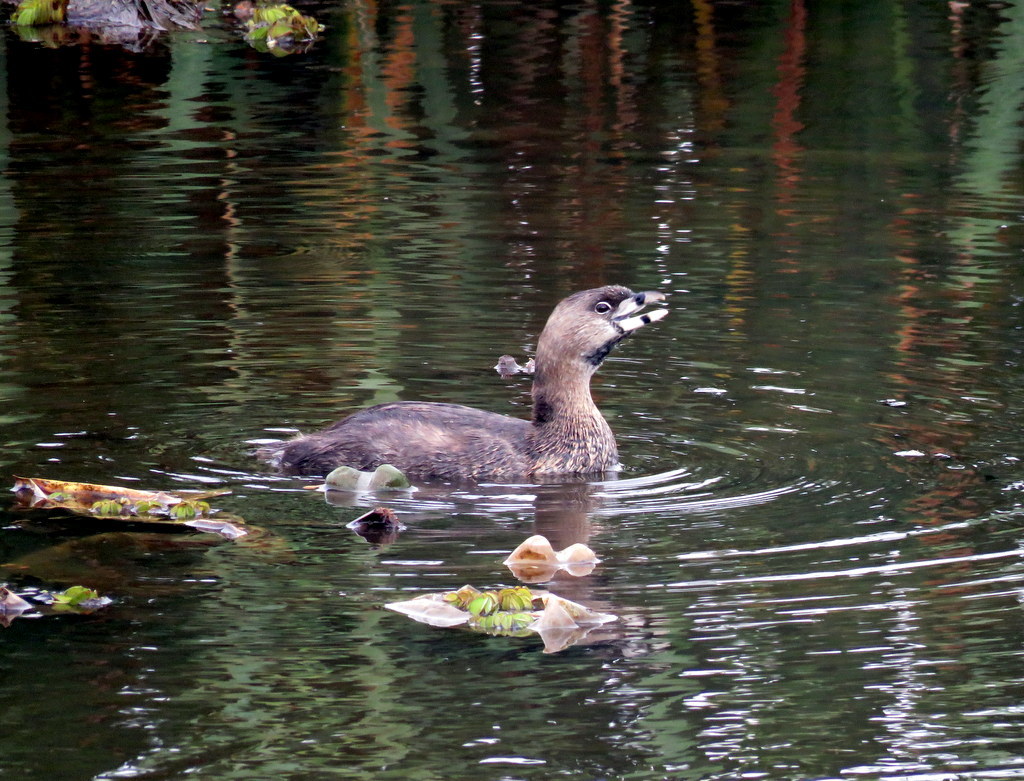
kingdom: Animalia
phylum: Chordata
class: Aves
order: Podicipediformes
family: Podicipedidae
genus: Podilymbus
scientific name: Podilymbus podiceps
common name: Pied-billed grebe
